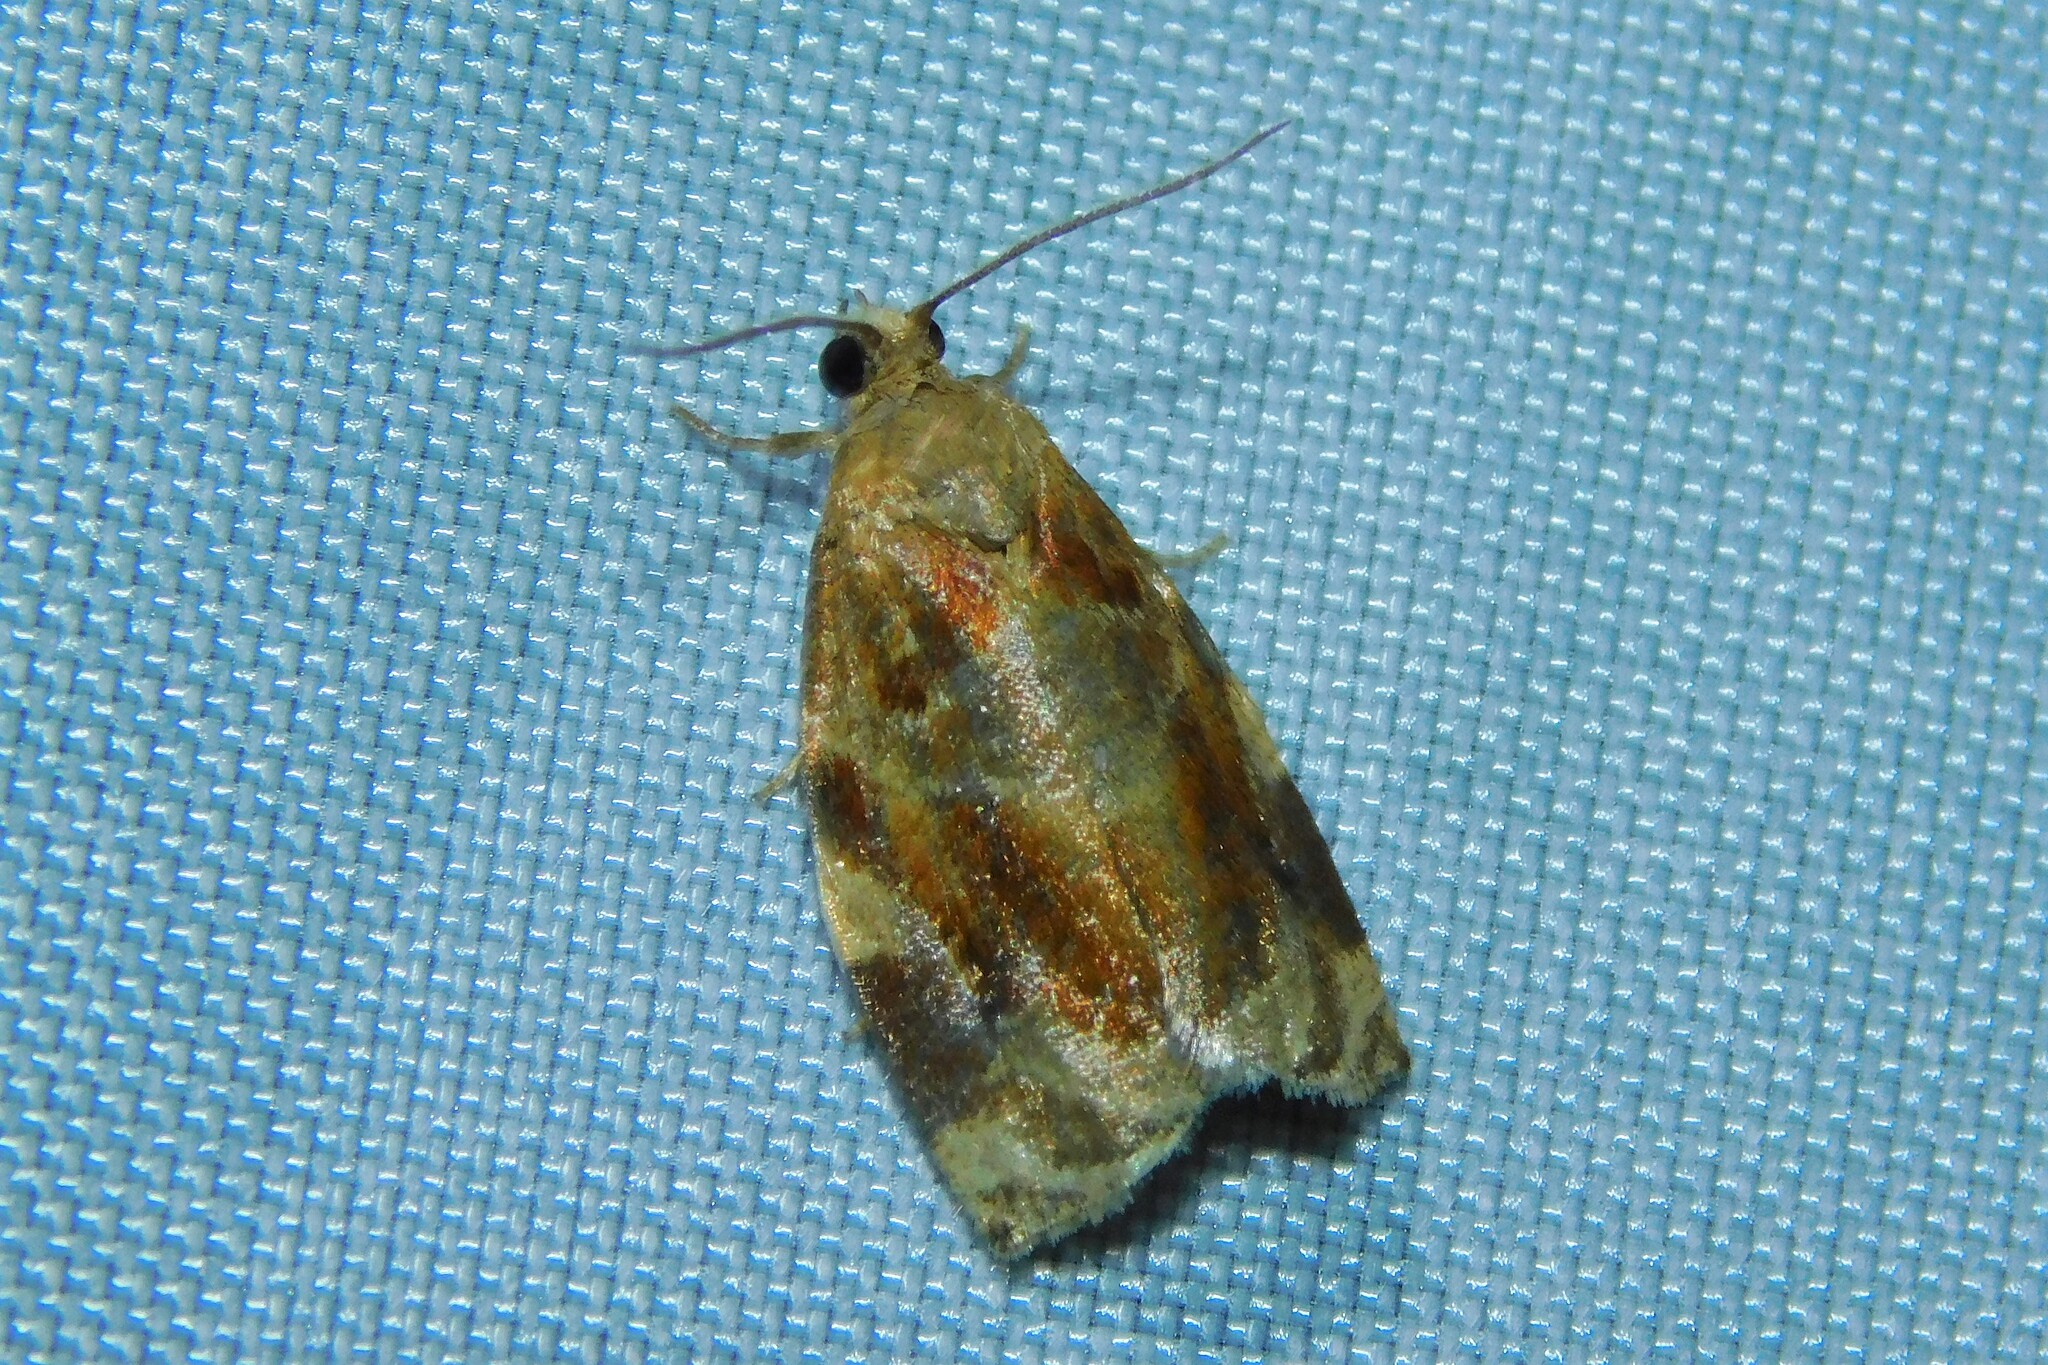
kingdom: Animalia
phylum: Arthropoda
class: Insecta
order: Lepidoptera
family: Tortricidae
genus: Archips
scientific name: Archips xylosteana
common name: Variegated golden tortrix
